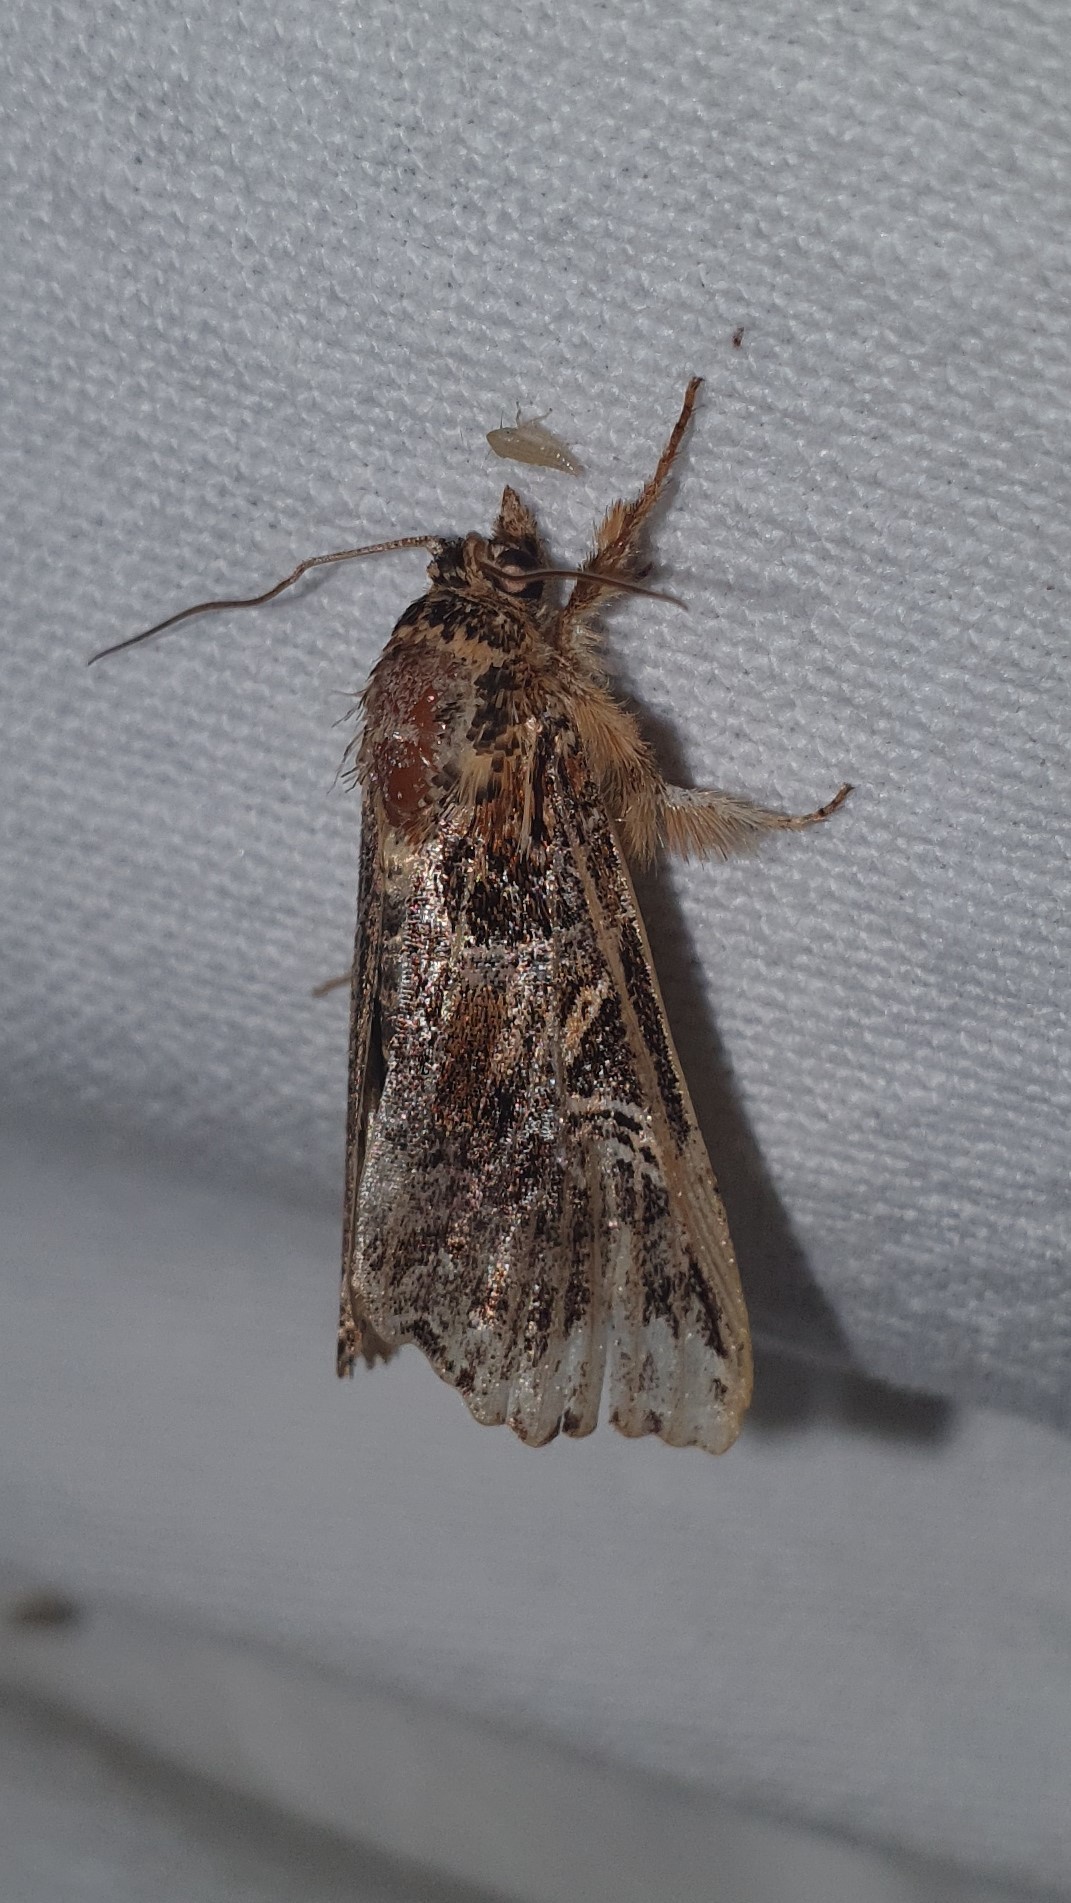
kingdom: Animalia
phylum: Arthropoda
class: Insecta
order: Lepidoptera
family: Noctuidae
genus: Callopistria
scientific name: Callopistria juventina
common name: Latin
